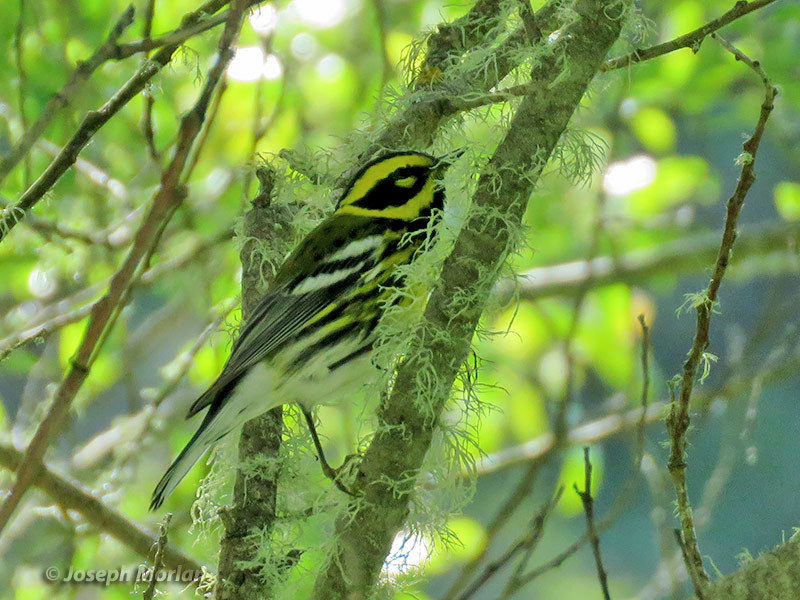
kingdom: Animalia
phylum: Chordata
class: Aves
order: Passeriformes
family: Parulidae
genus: Setophaga
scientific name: Setophaga townsendi
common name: Townsend's warbler
